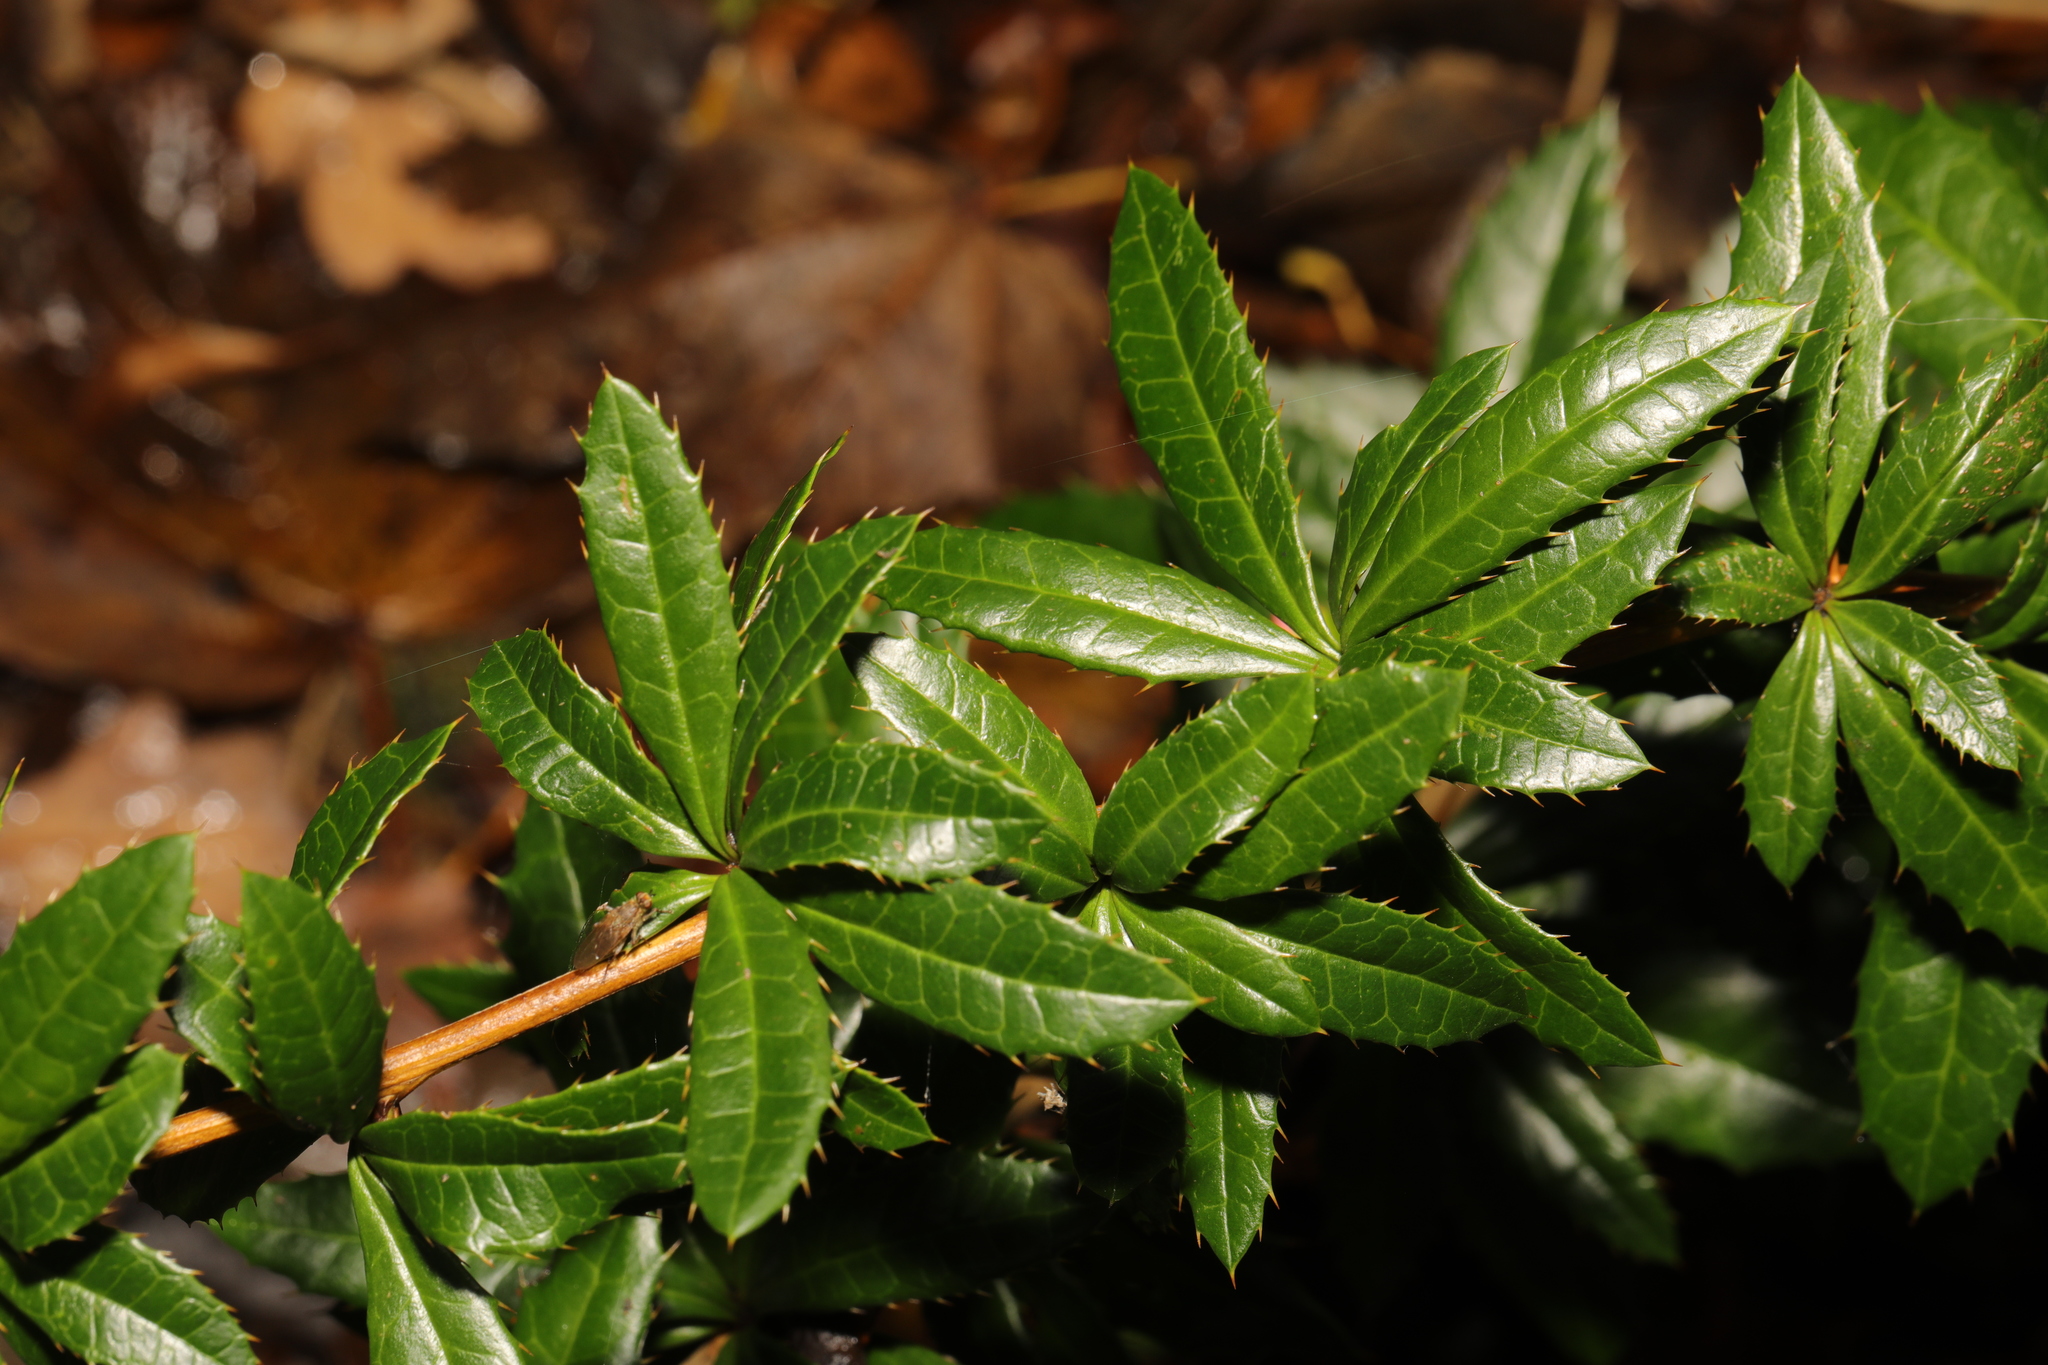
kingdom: Plantae
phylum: Tracheophyta
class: Magnoliopsida
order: Ranunculales
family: Berberidaceae
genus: Berberis
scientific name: Berberis julianae
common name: Wintergreen barberry
